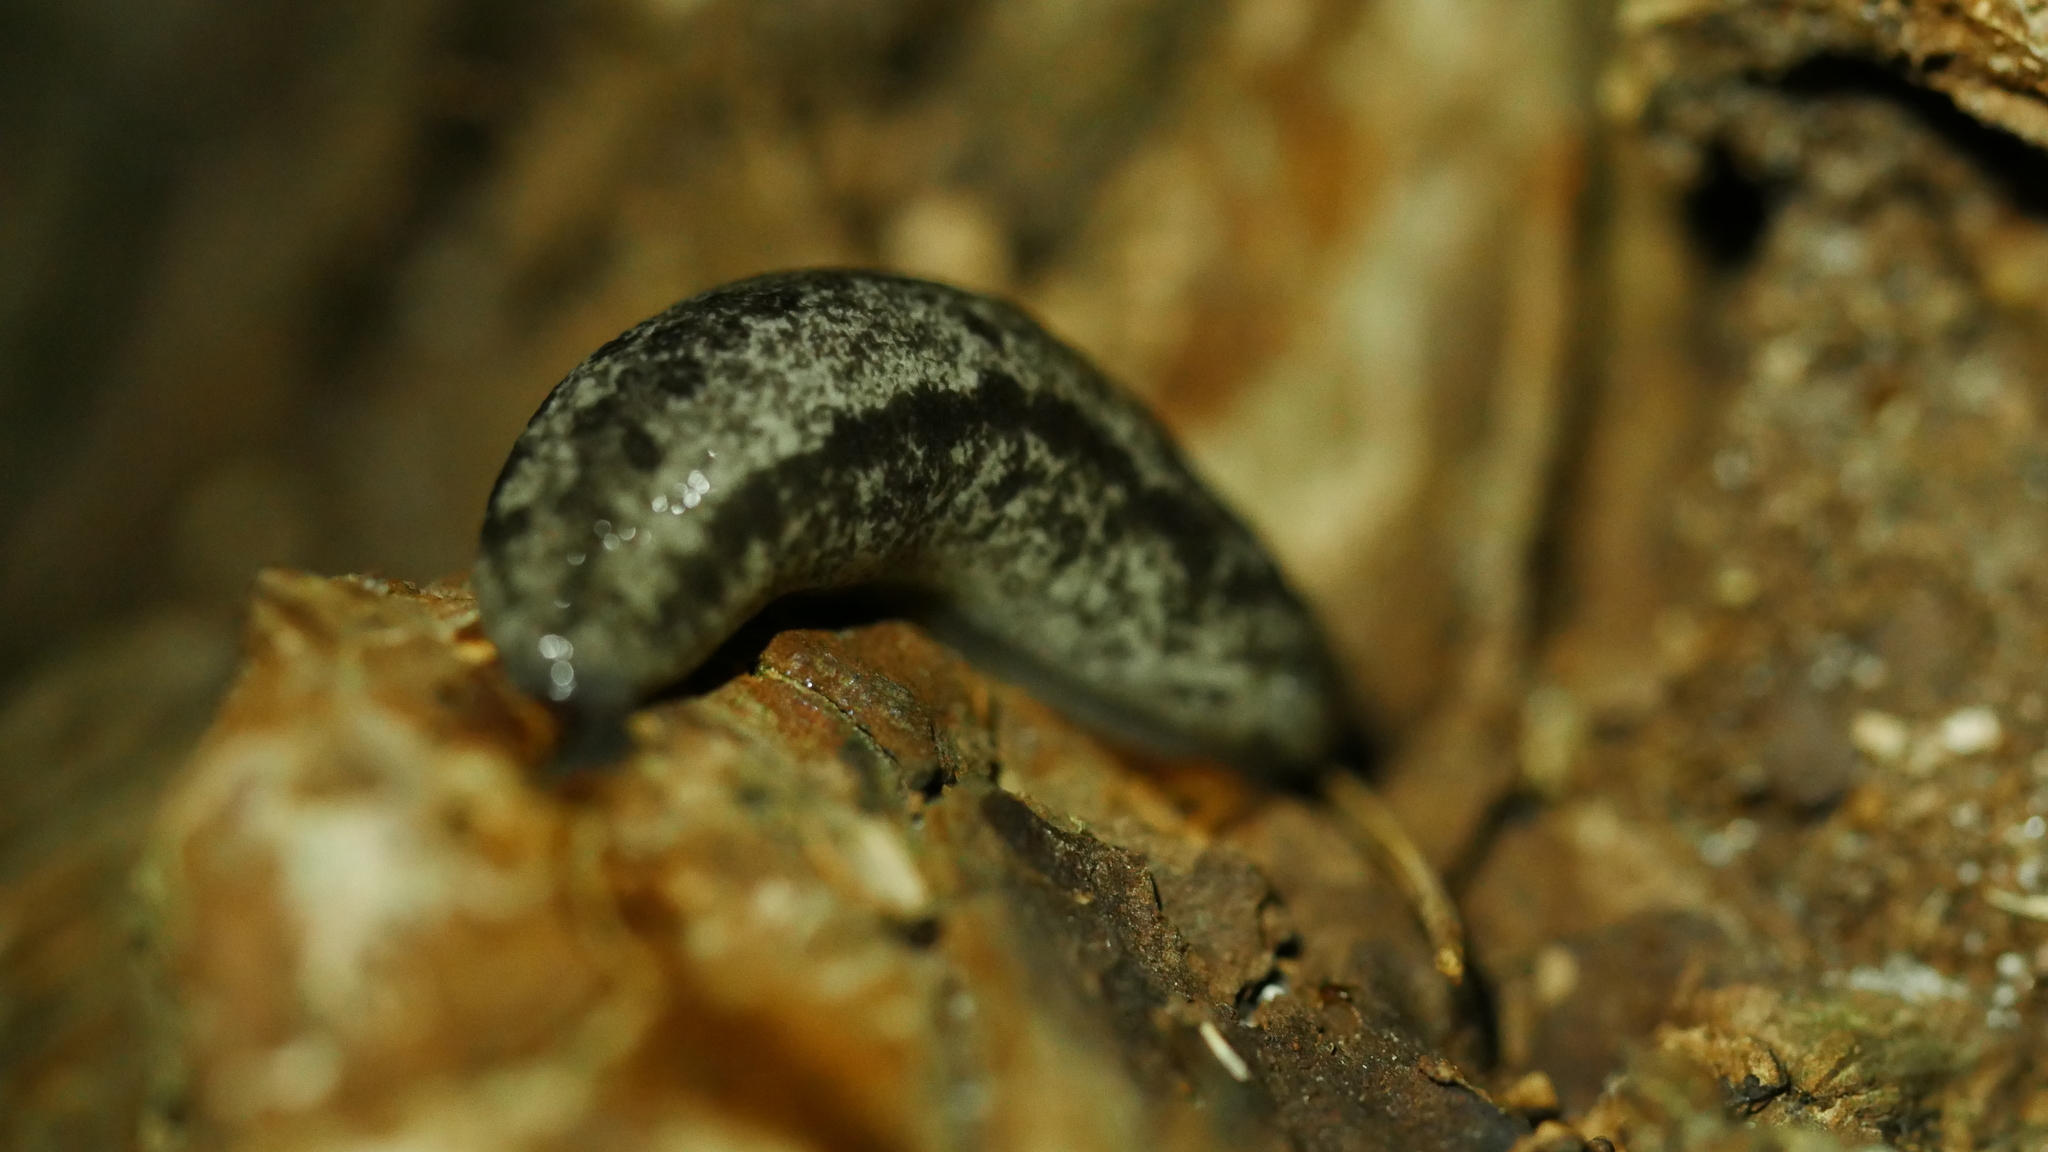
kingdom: Animalia
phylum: Mollusca
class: Gastropoda
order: Stylommatophora
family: Philomycidae
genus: Megapallifera
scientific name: Megapallifera mutabilis
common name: Changeable mantleslug
